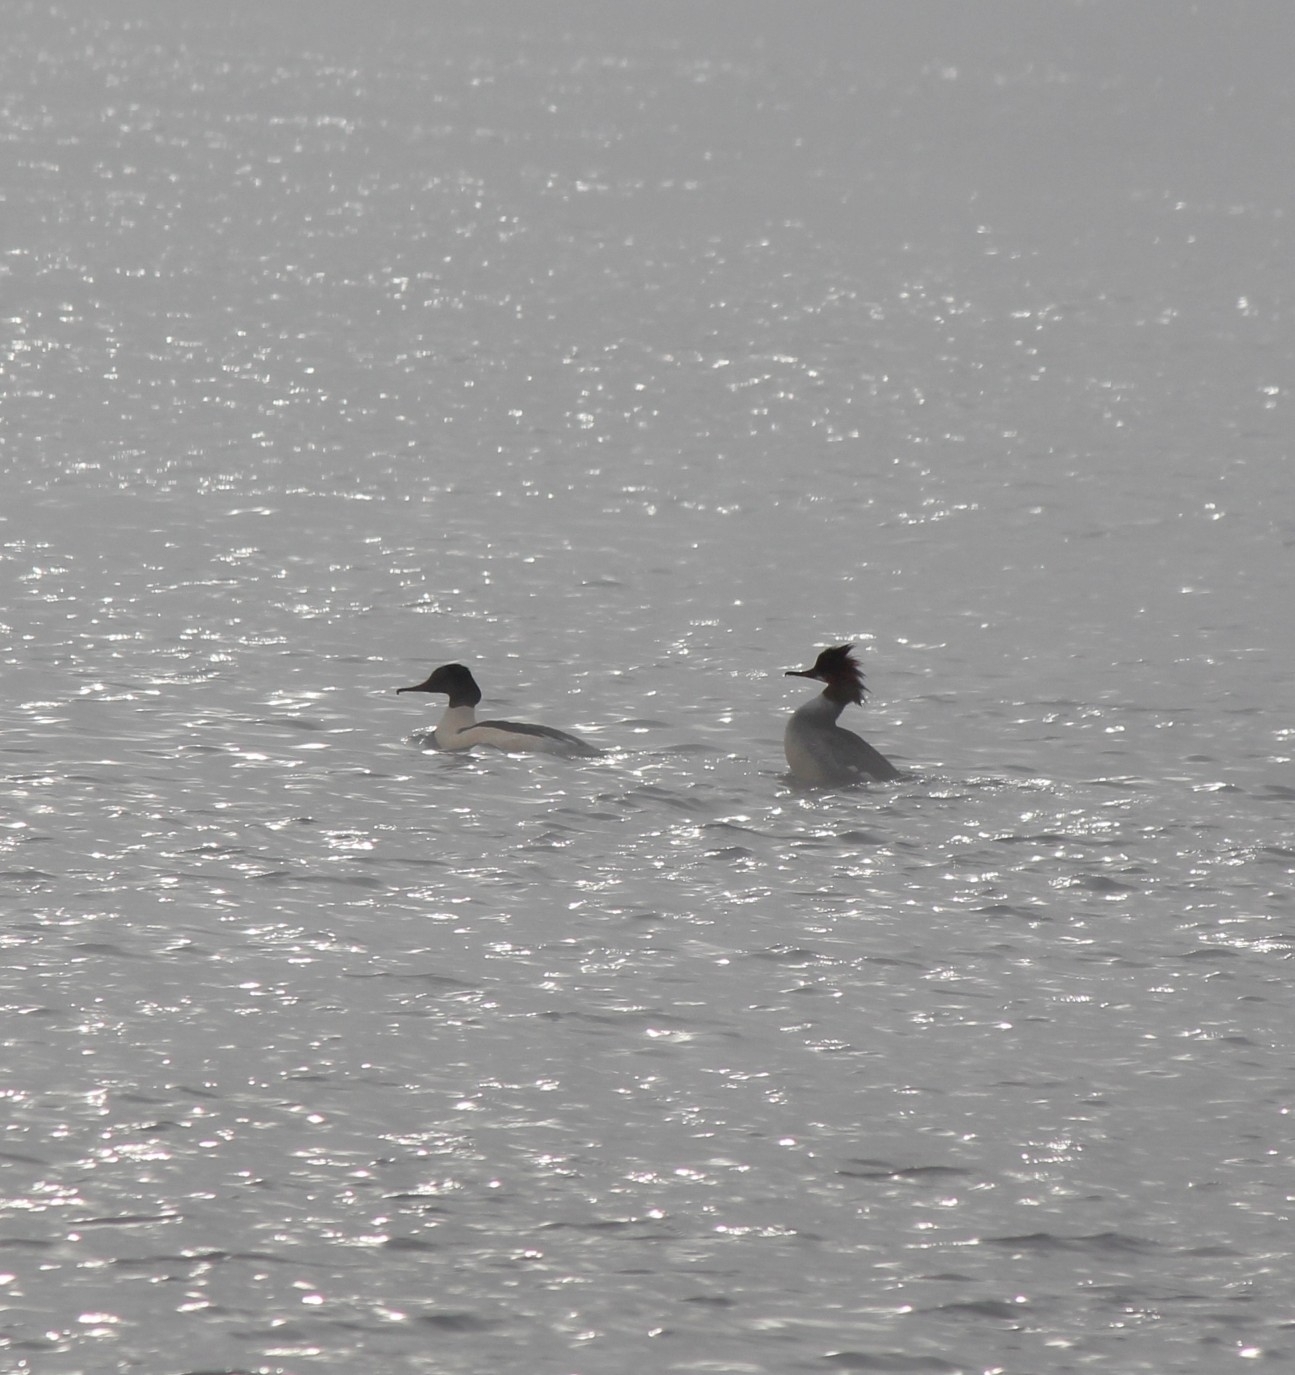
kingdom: Animalia
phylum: Chordata
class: Aves
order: Anseriformes
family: Anatidae
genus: Mergus
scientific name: Mergus merganser
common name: Common merganser
